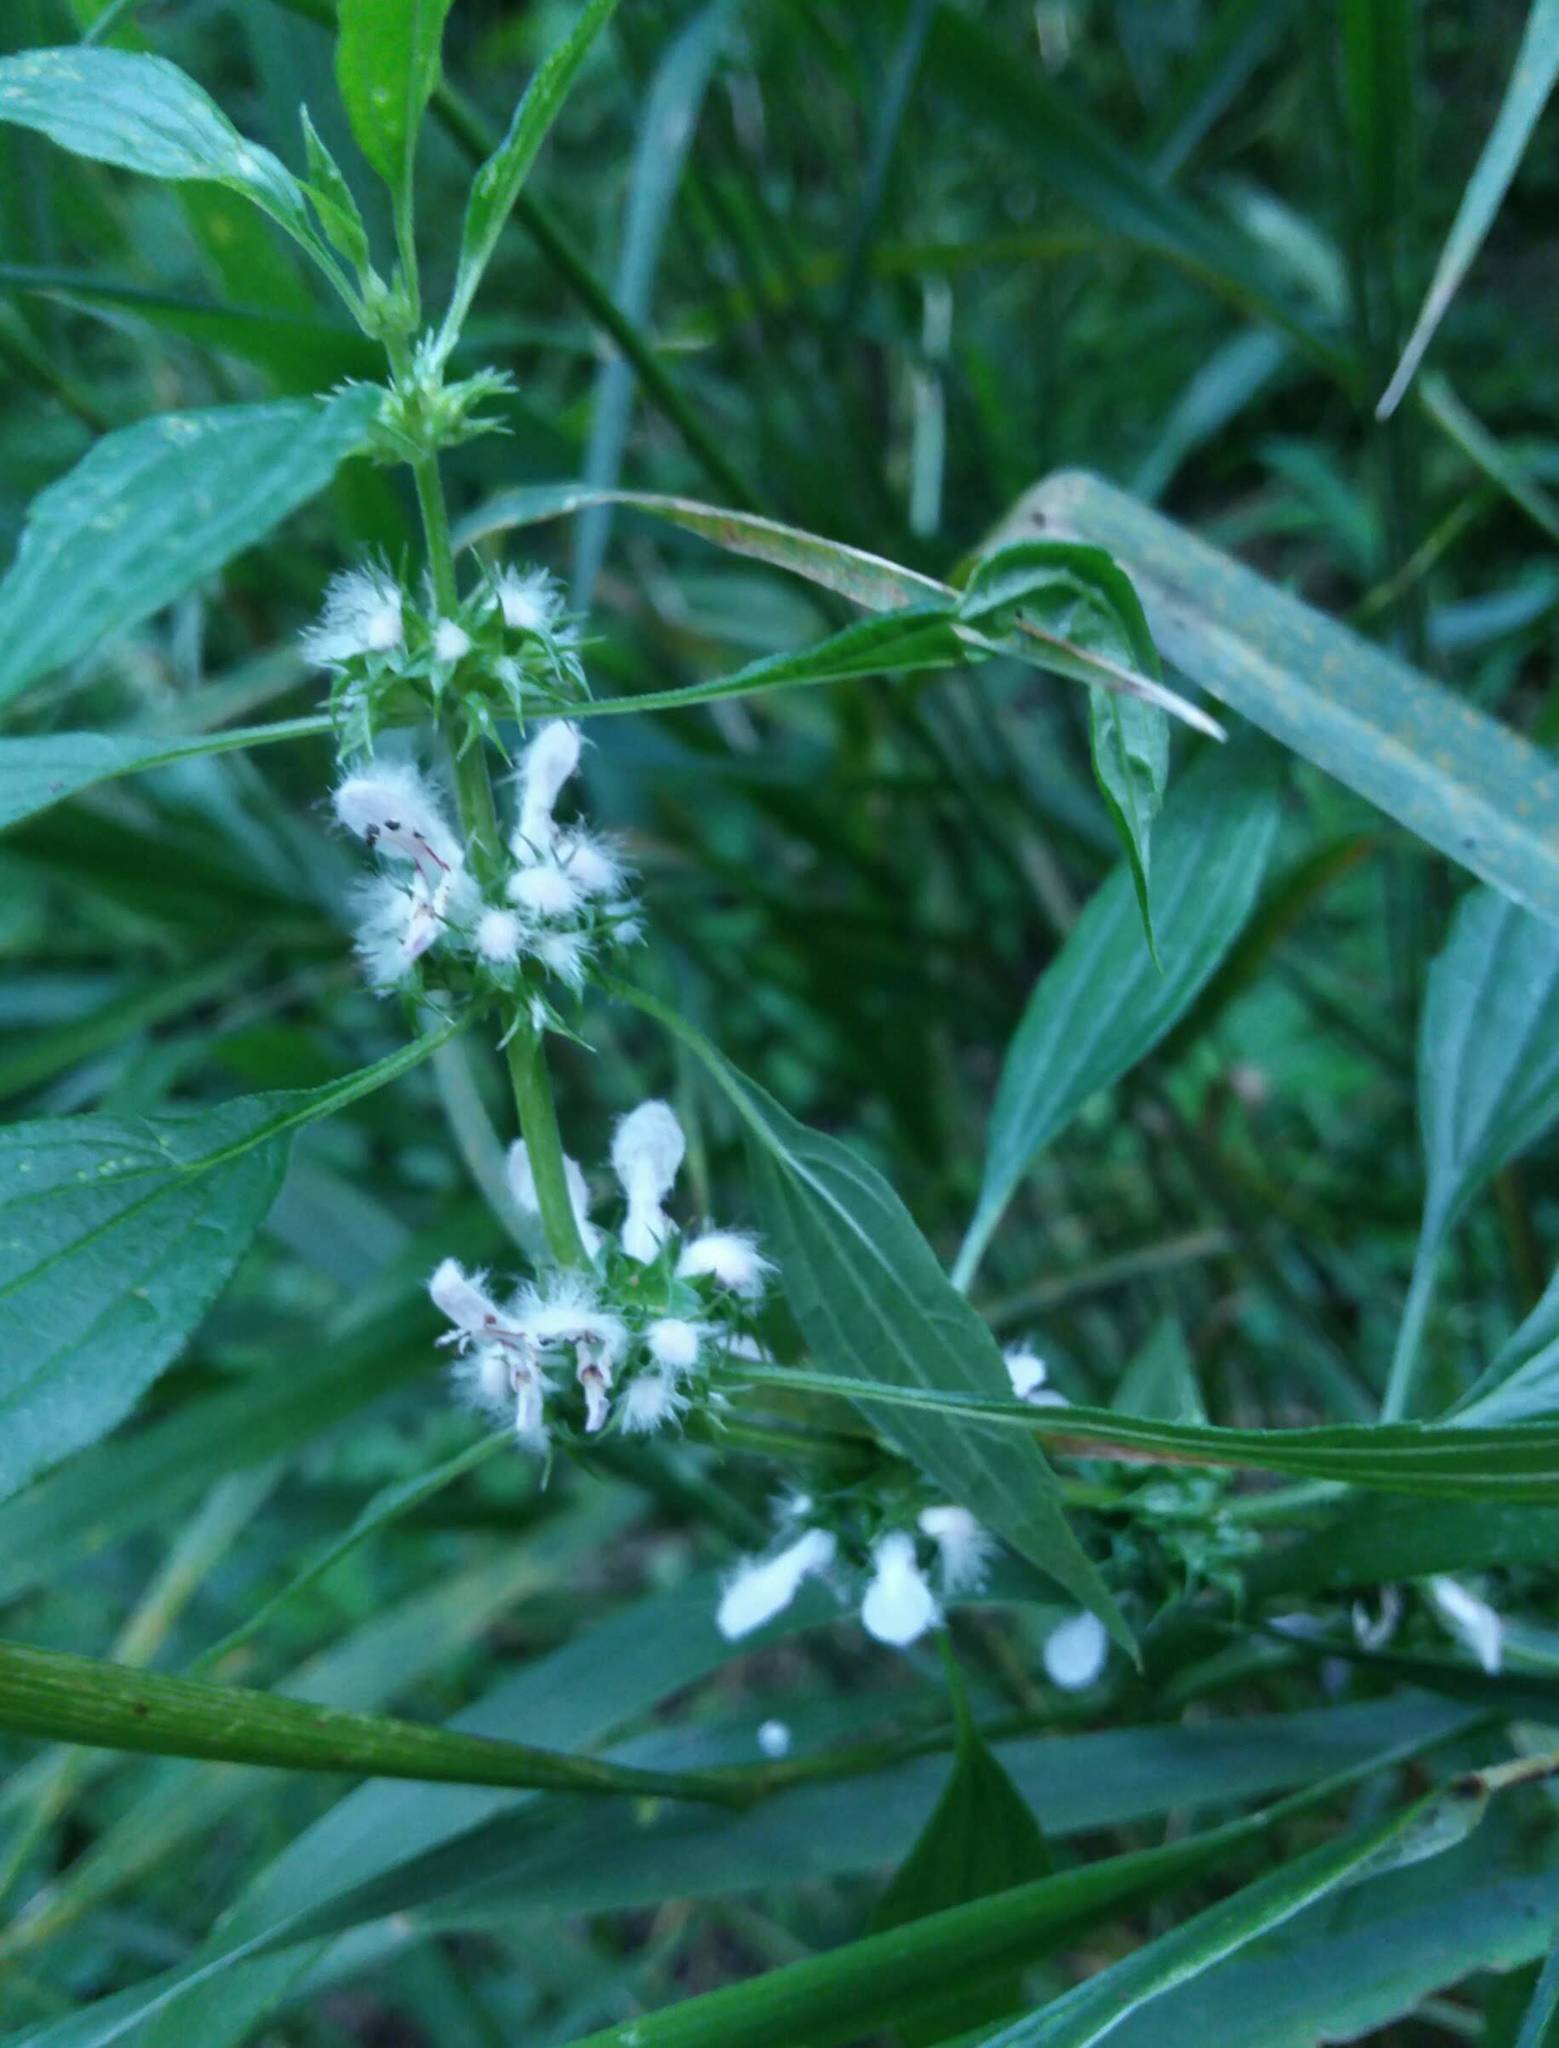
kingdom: Plantae
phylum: Tracheophyta
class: Magnoliopsida
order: Lamiales
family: Lamiaceae
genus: Leonurus
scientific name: Leonurus cardiaca
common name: Motherwort
